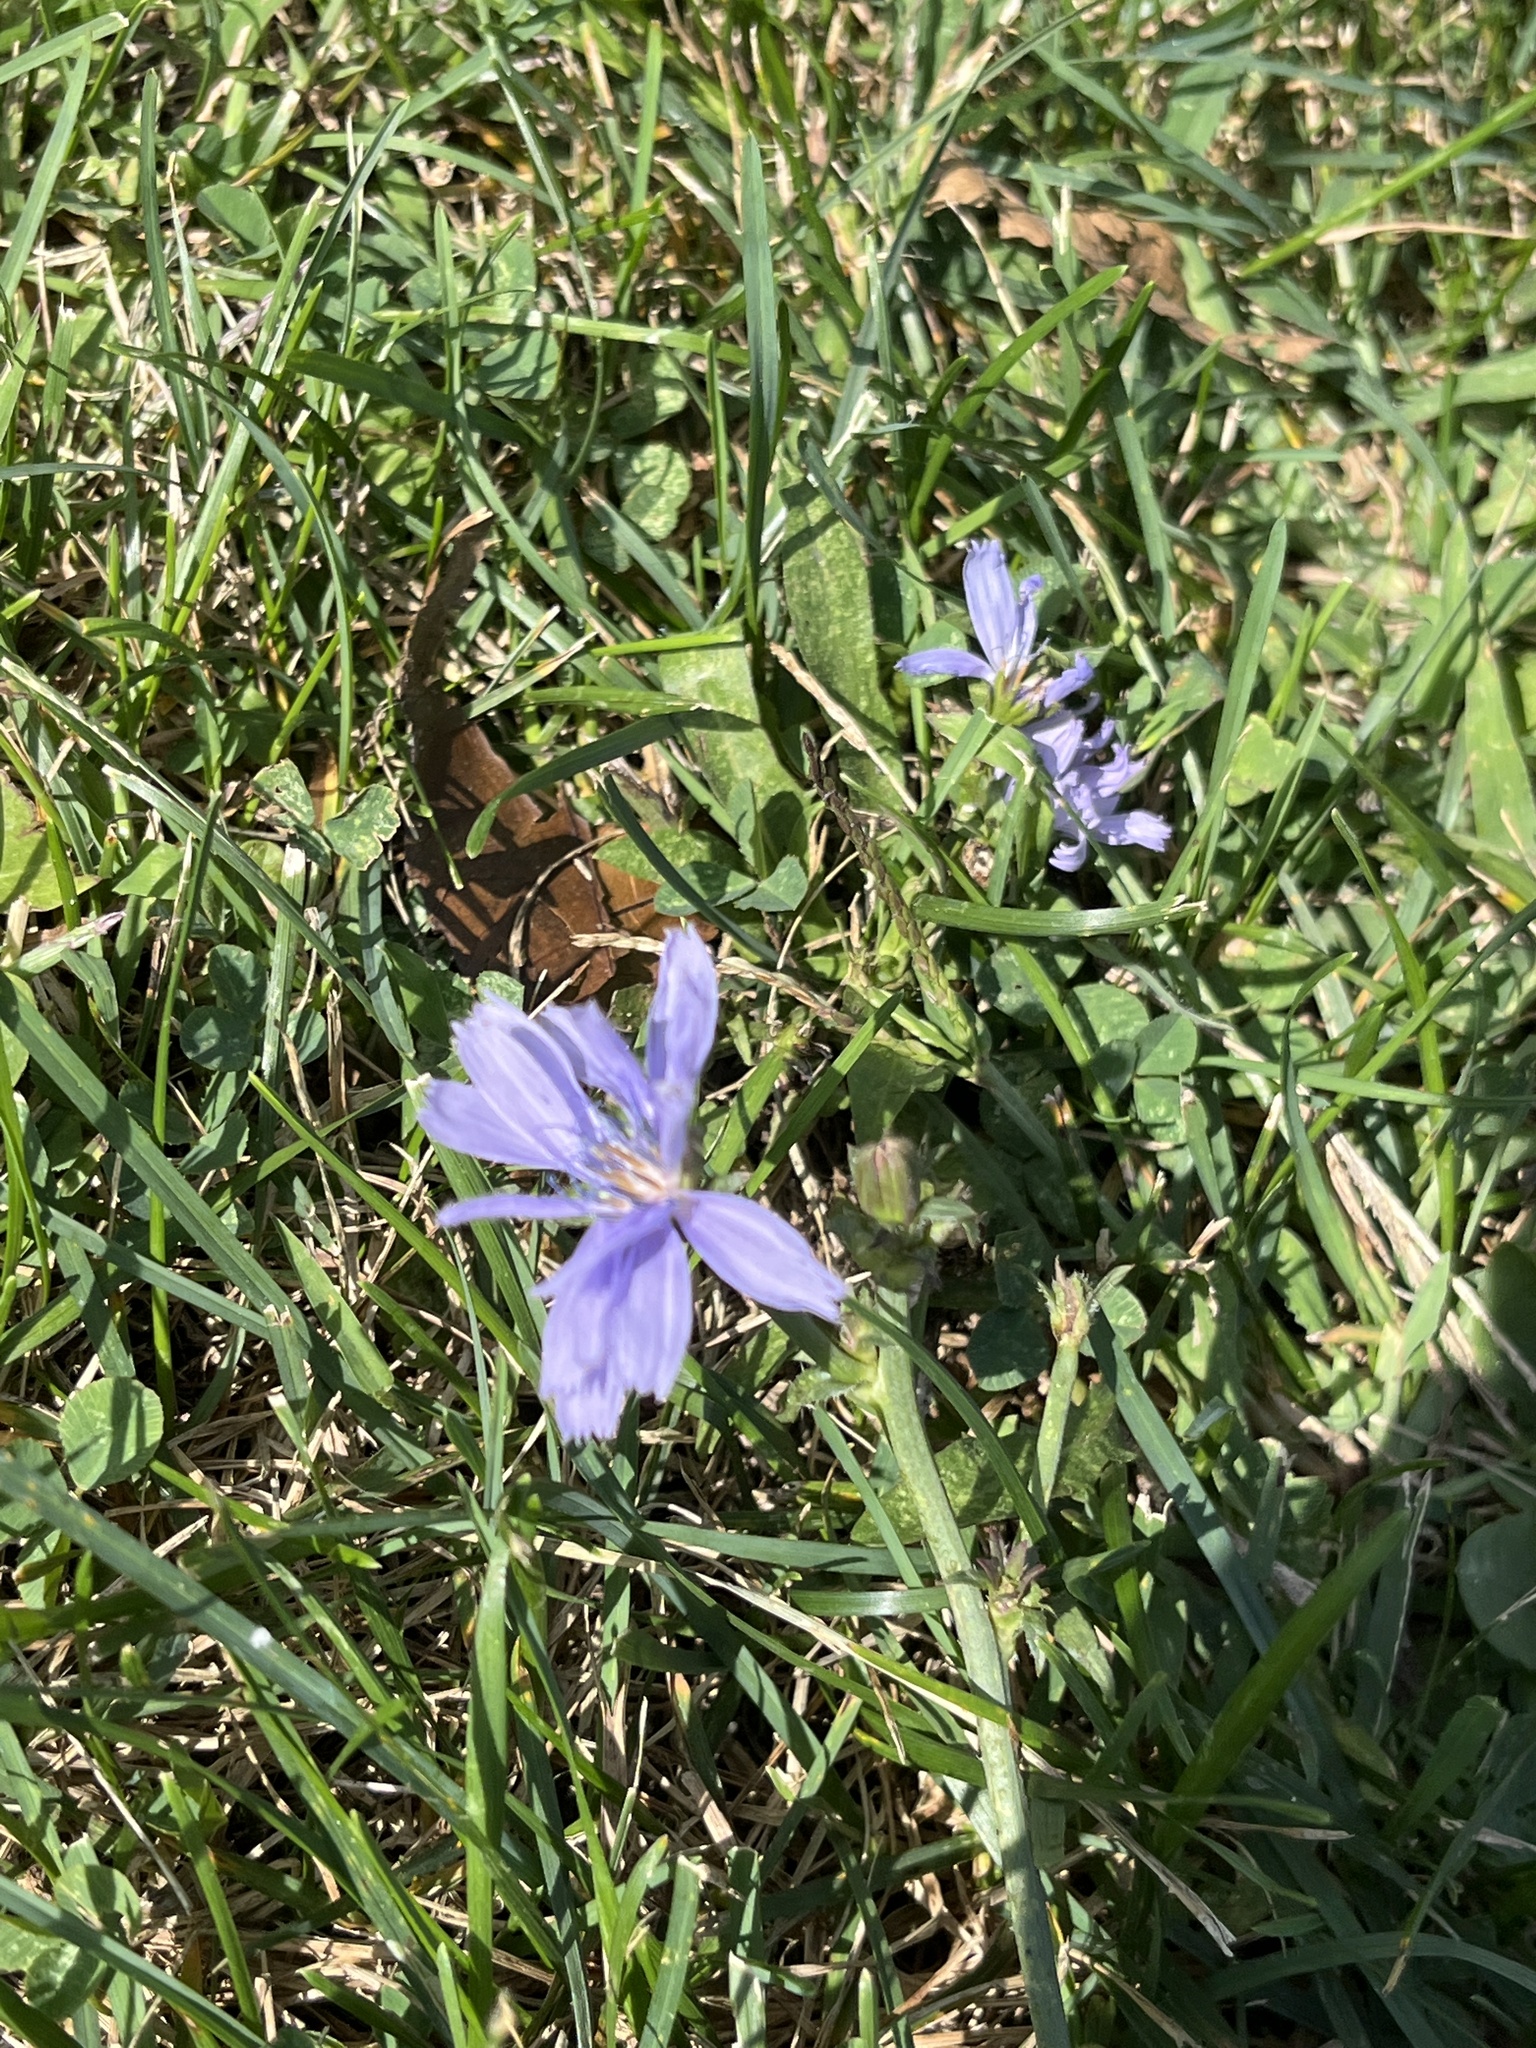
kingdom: Plantae
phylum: Tracheophyta
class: Magnoliopsida
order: Asterales
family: Asteraceae
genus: Cichorium
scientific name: Cichorium intybus
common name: Chicory
